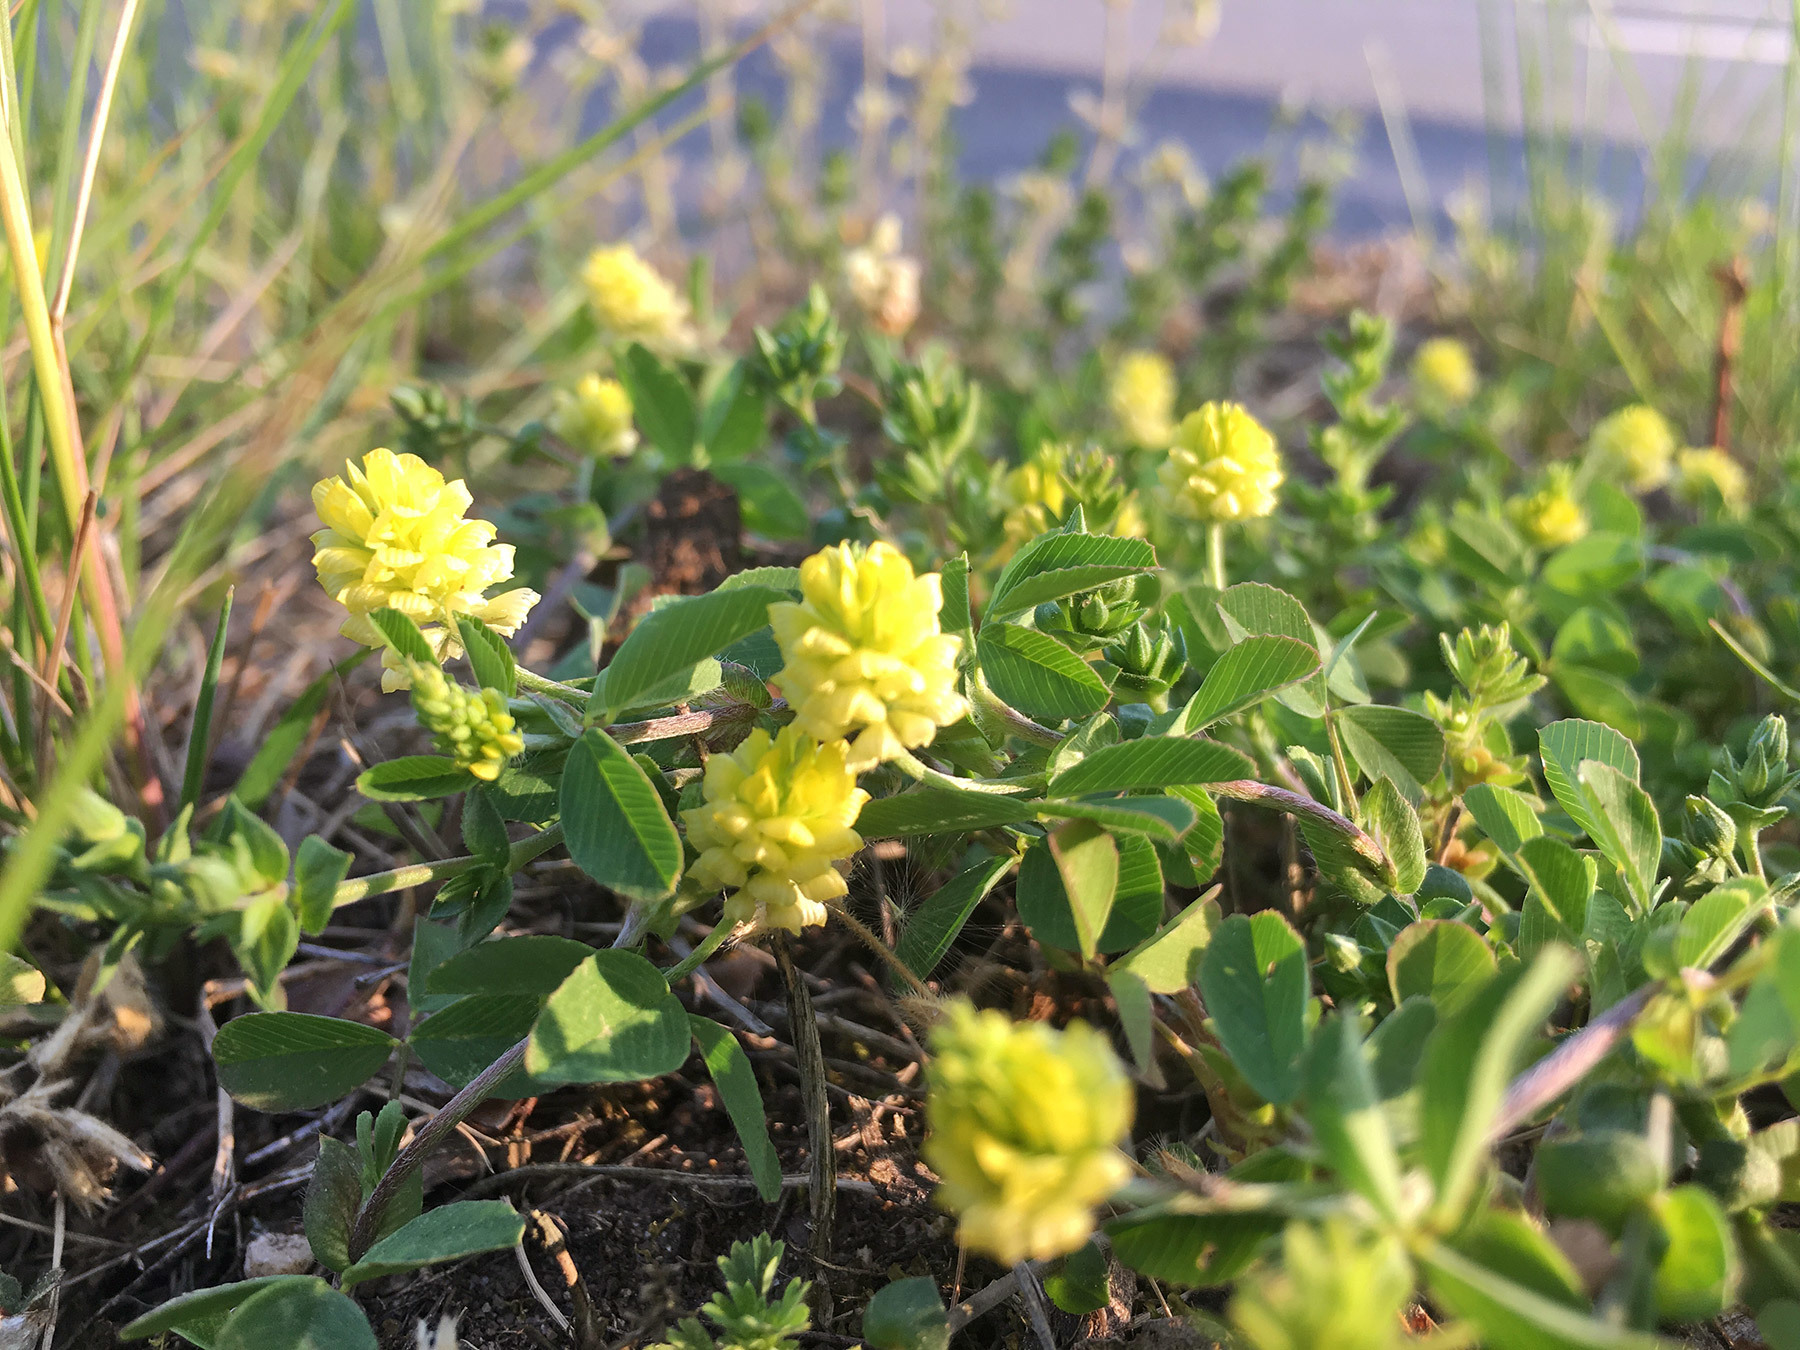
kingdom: Plantae
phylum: Tracheophyta
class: Magnoliopsida
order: Fabales
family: Fabaceae
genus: Trifolium
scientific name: Trifolium campestre
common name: Field clover
